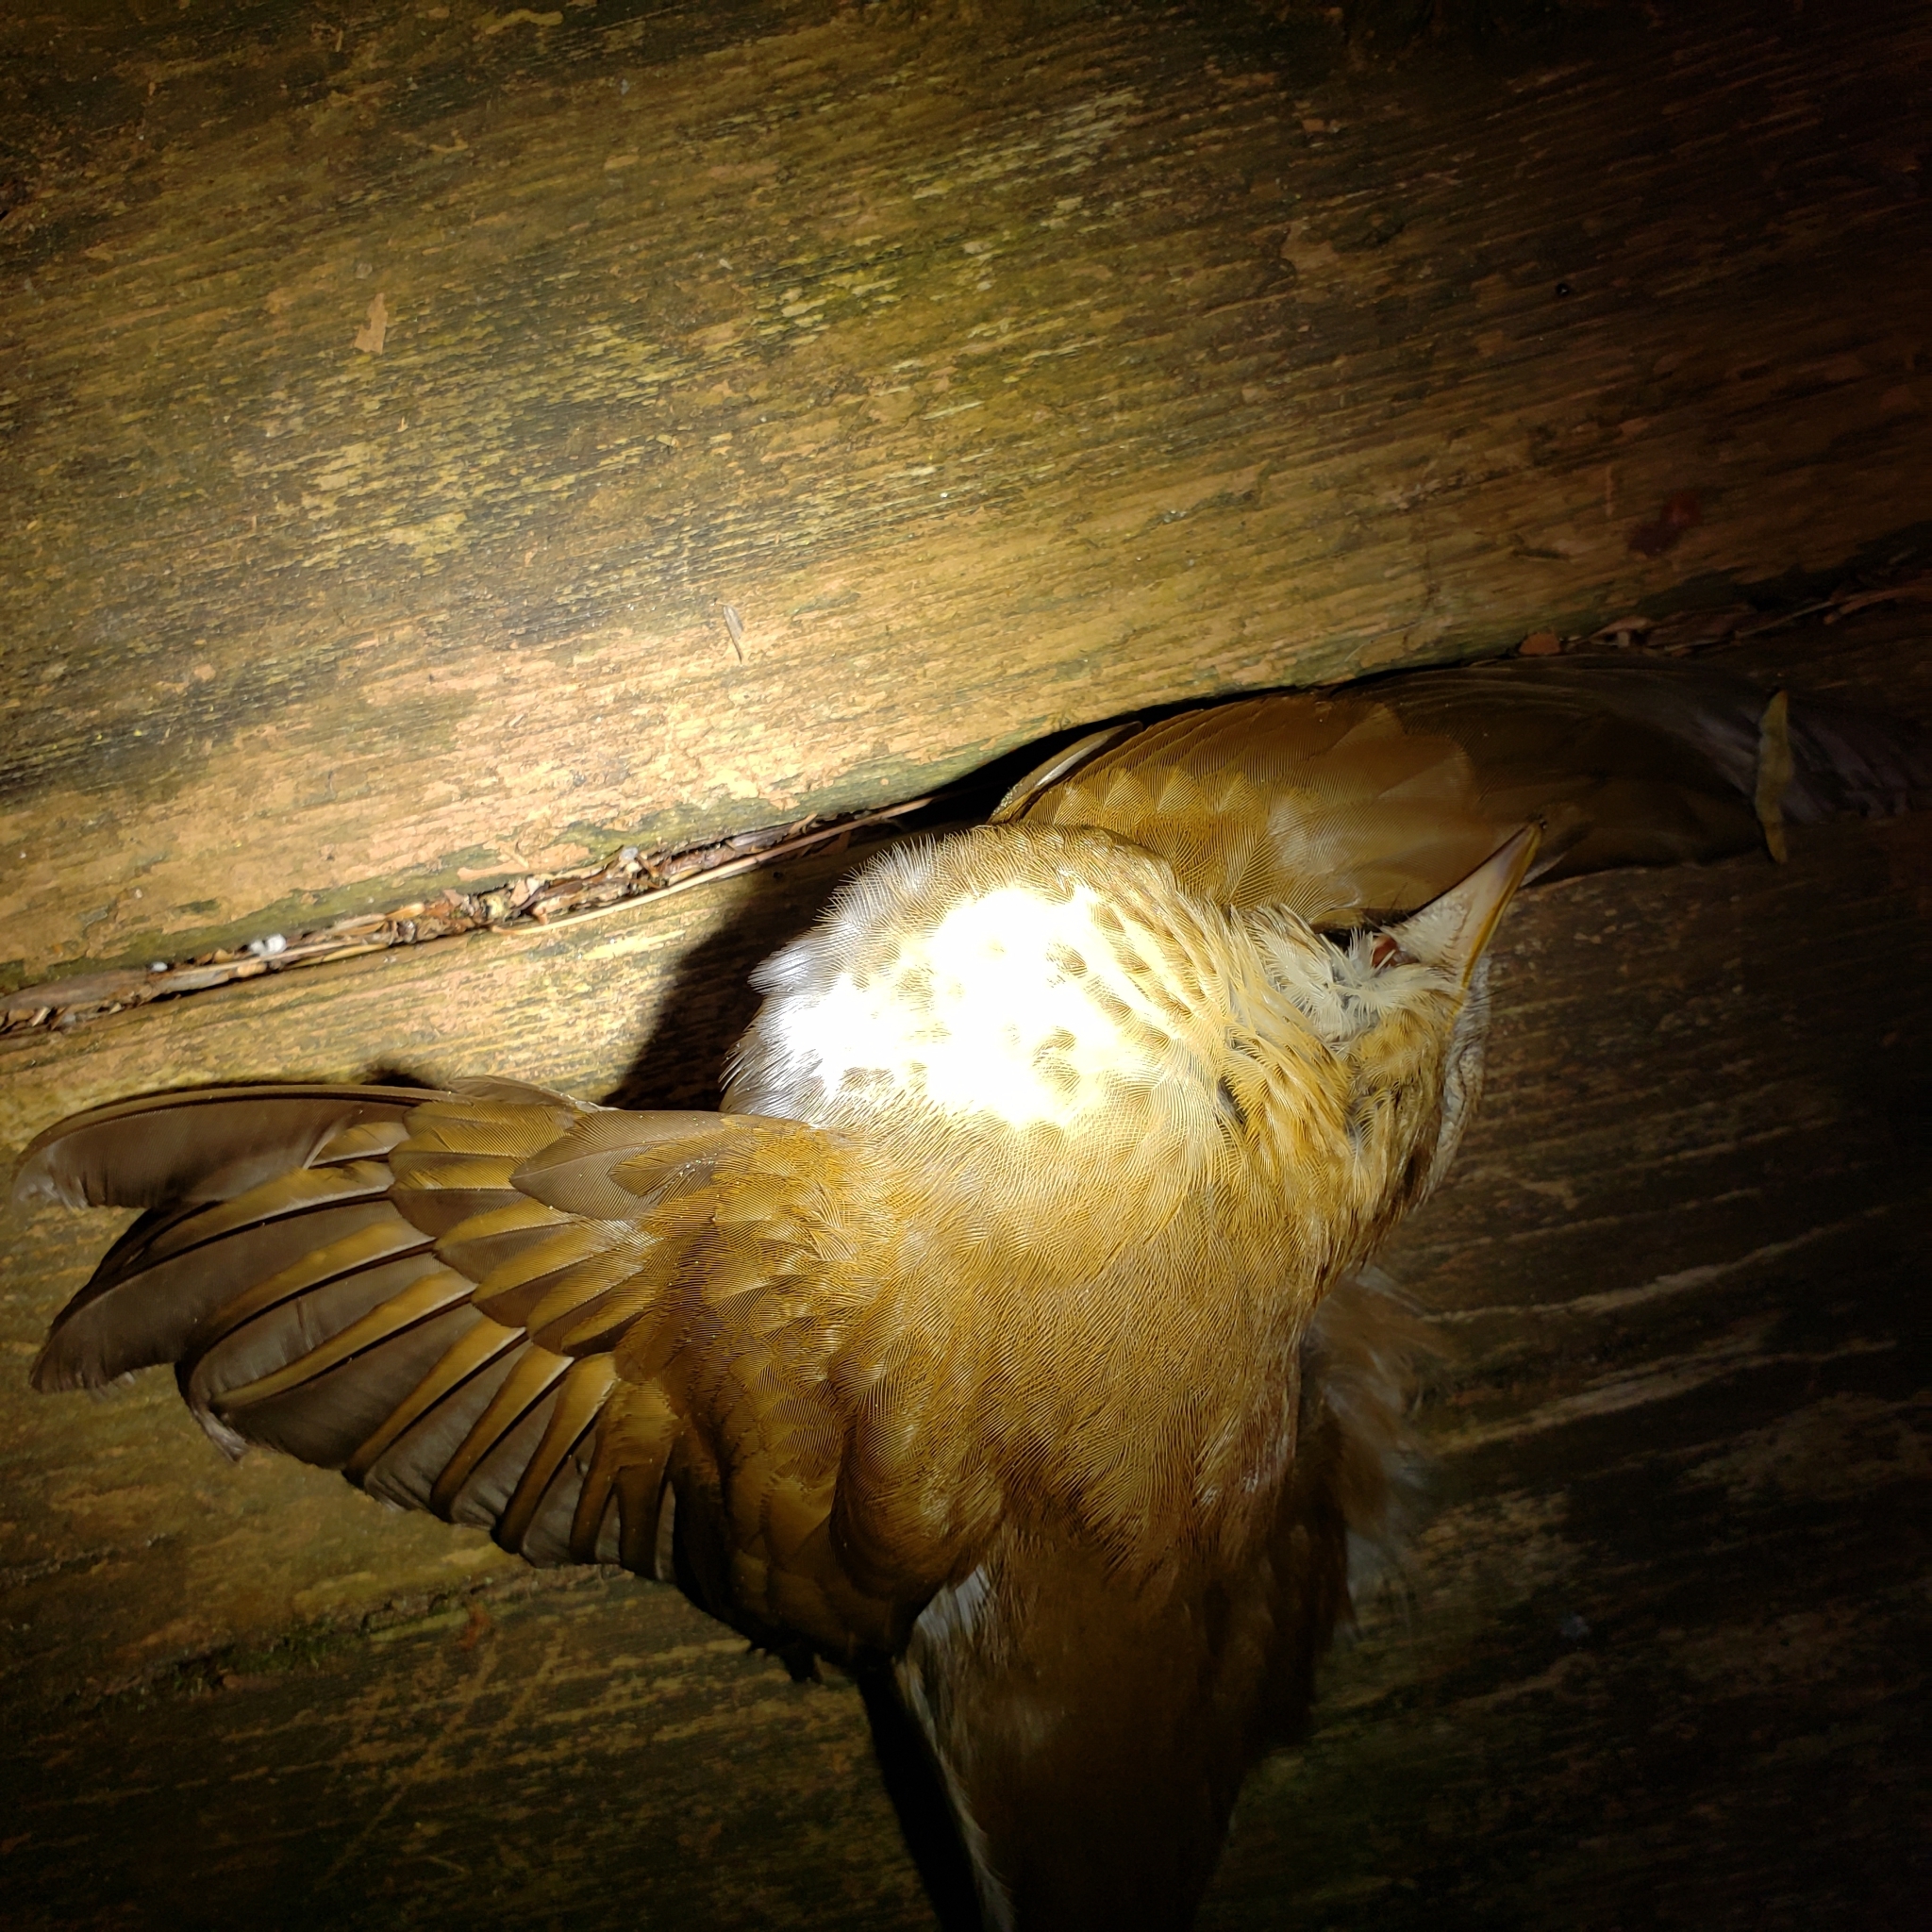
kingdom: Animalia
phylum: Chordata
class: Aves
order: Passeriformes
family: Turdidae
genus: Catharus
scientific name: Catharus fuscescens
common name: Veery
